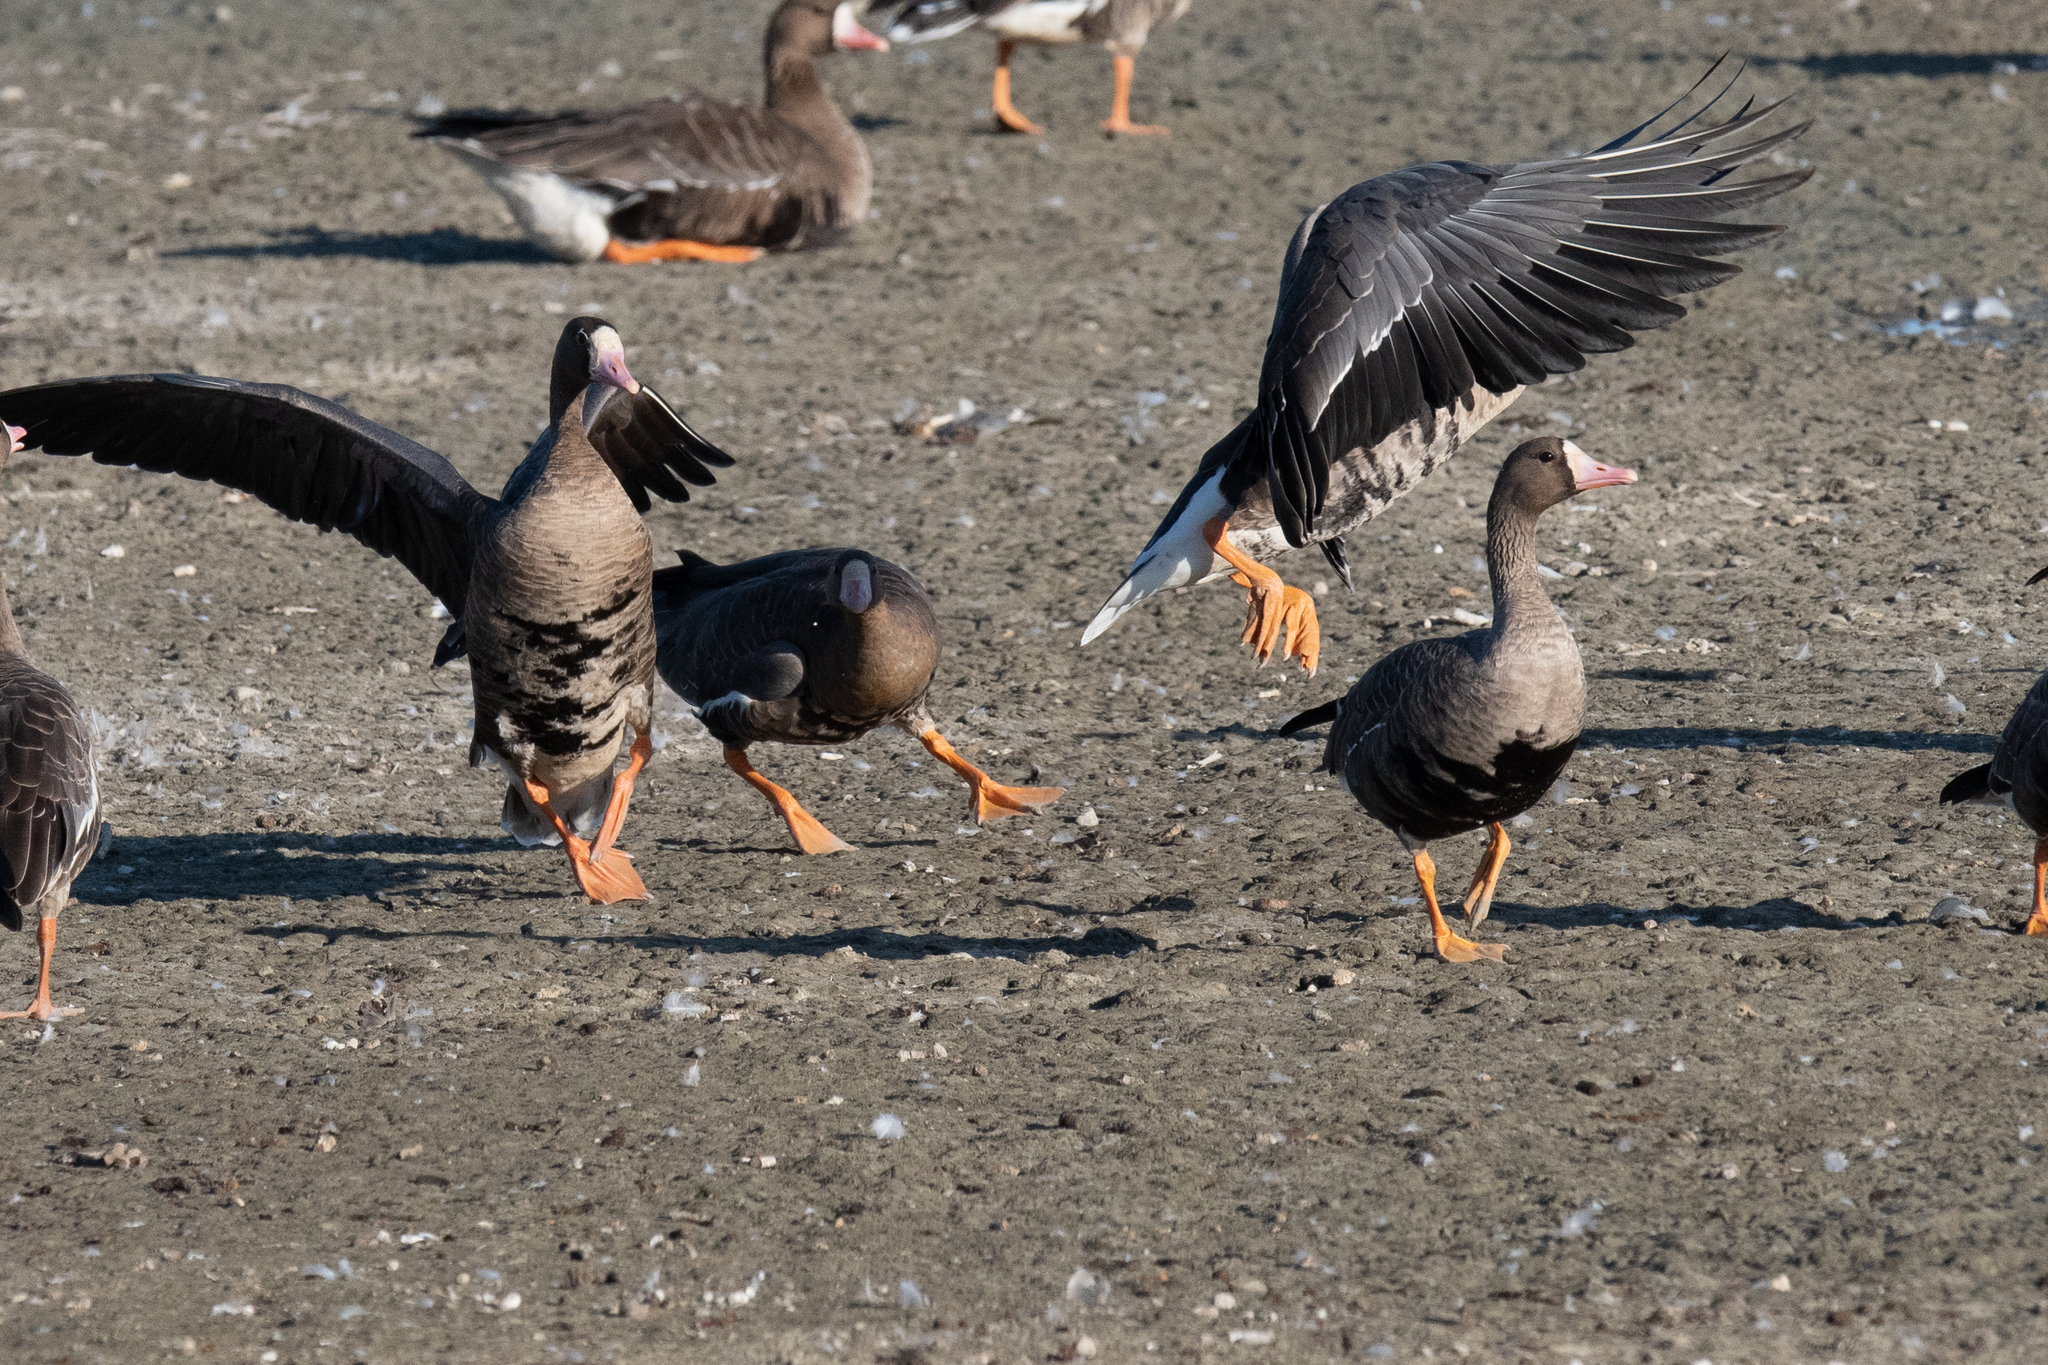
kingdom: Animalia
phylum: Chordata
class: Aves
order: Anseriformes
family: Anatidae
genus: Anser
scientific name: Anser albifrons
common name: Greater white-fronted goose
